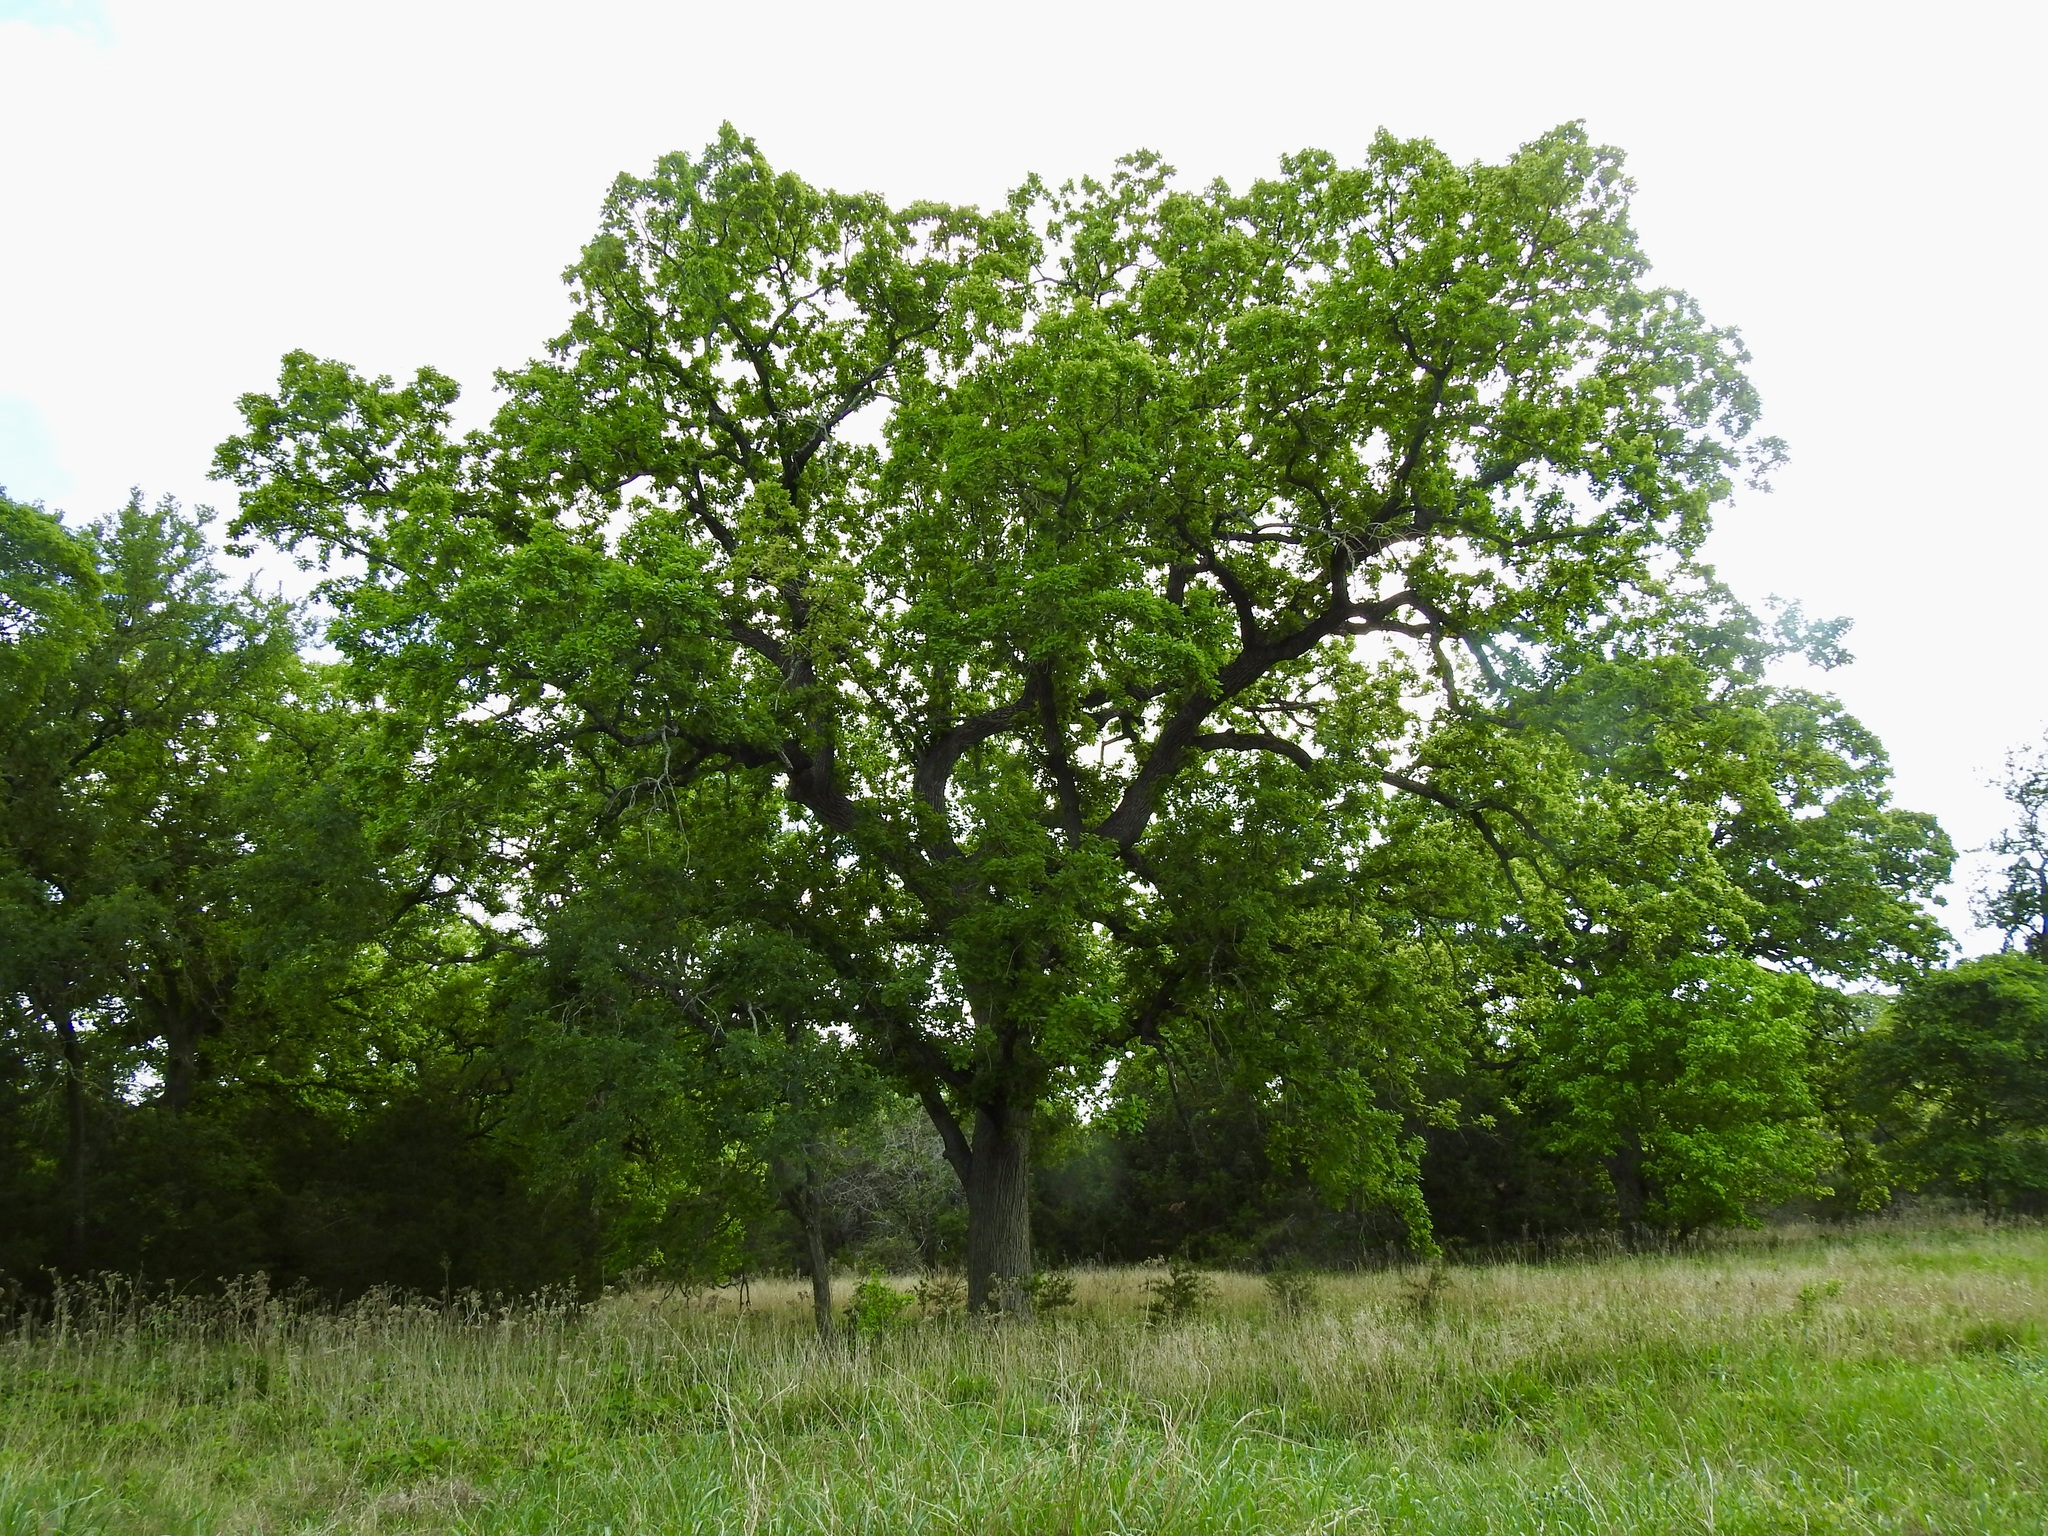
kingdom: Plantae
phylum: Tracheophyta
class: Magnoliopsida
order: Fagales
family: Fagaceae
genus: Quercus
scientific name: Quercus macrocarpa
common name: Bur oak
